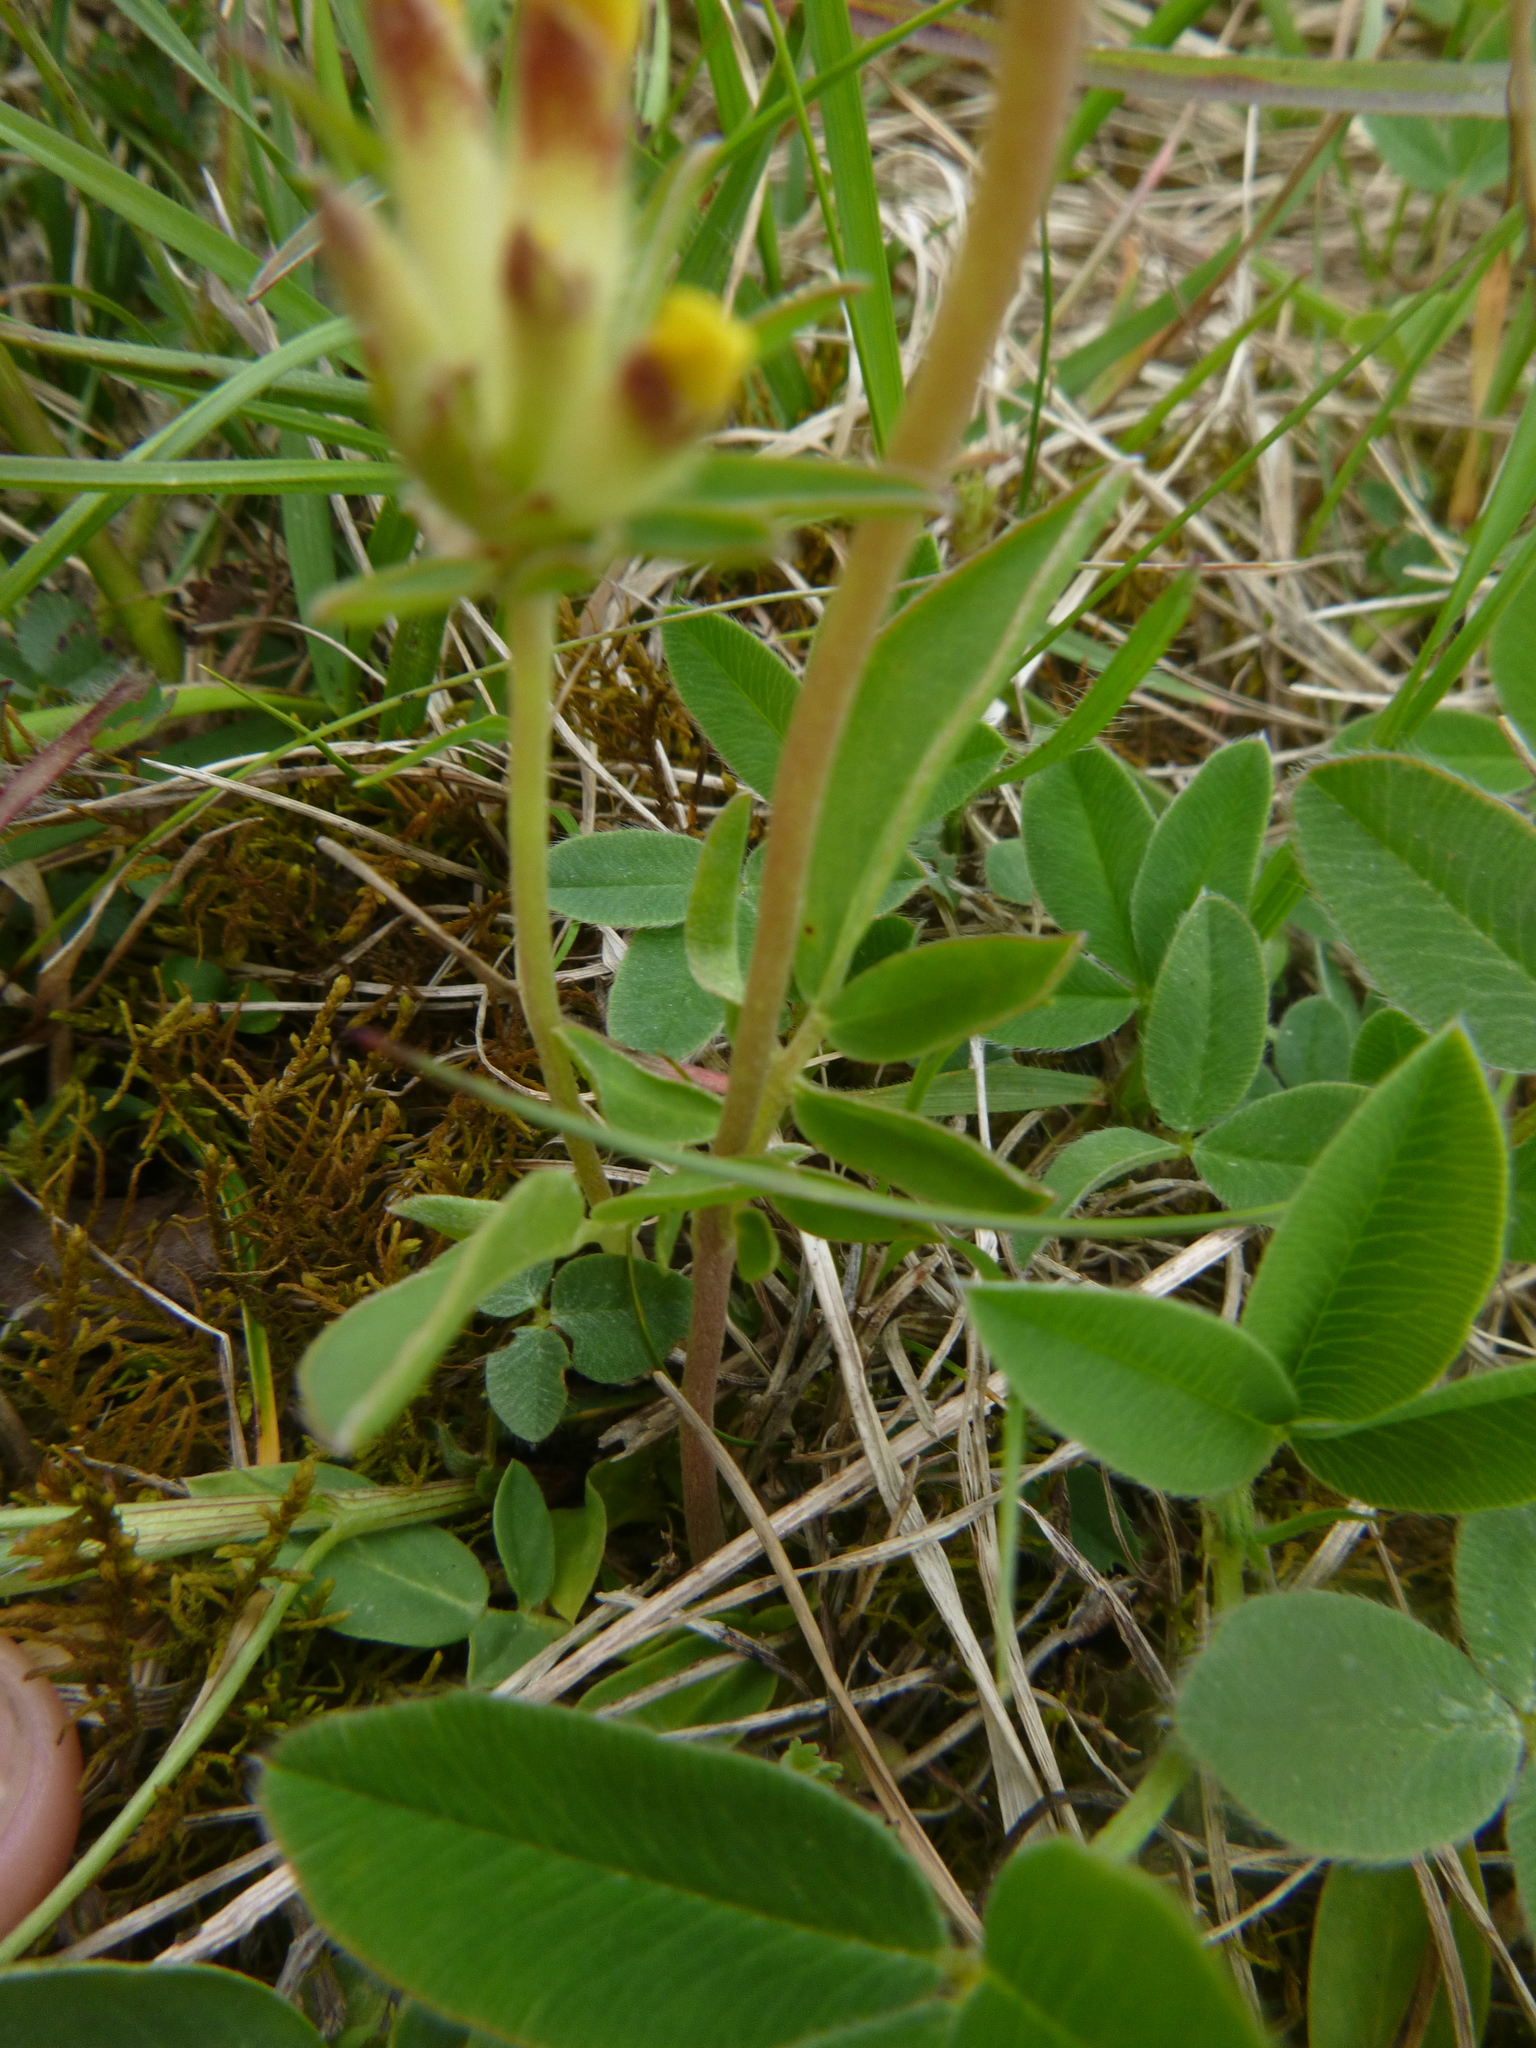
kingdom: Plantae
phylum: Tracheophyta
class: Magnoliopsida
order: Fabales
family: Fabaceae
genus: Anthyllis
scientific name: Anthyllis vulneraria
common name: Kidney vetch
